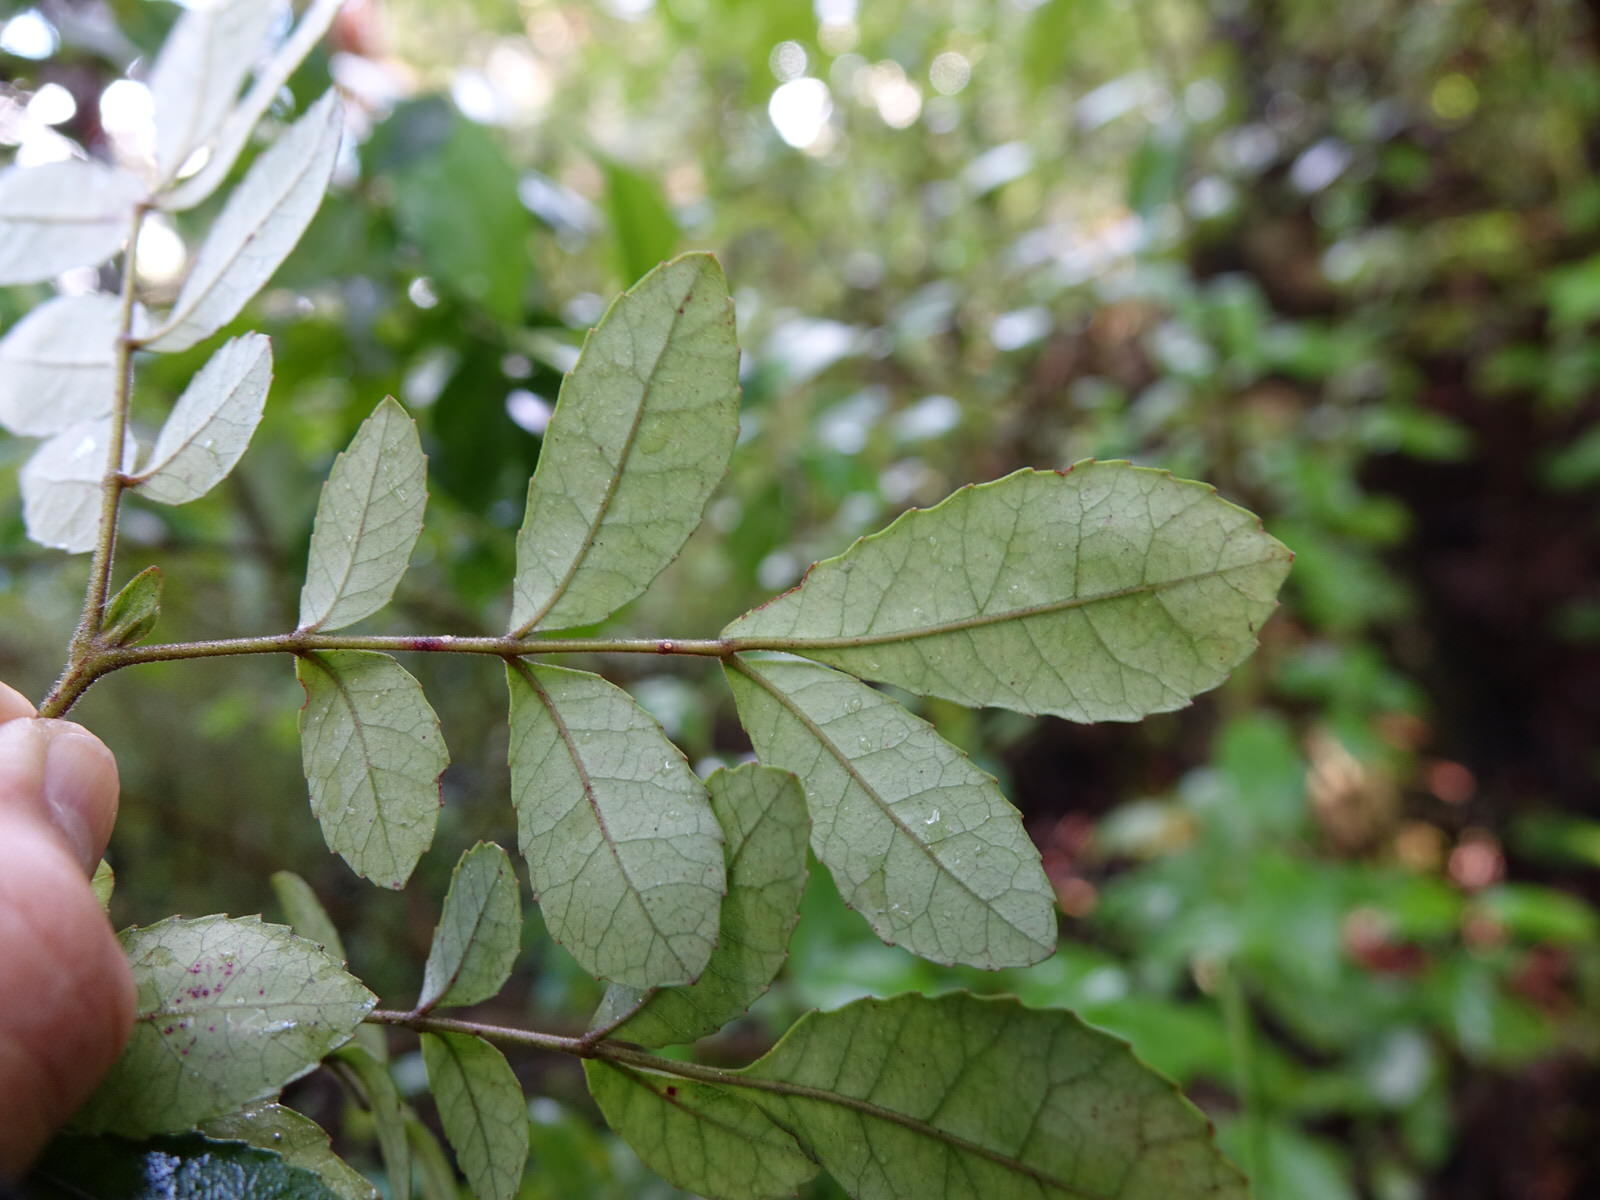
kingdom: Plantae
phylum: Tracheophyta
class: Magnoliopsida
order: Oxalidales
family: Cunoniaceae
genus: Pterophylla
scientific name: Pterophylla sylvicola
